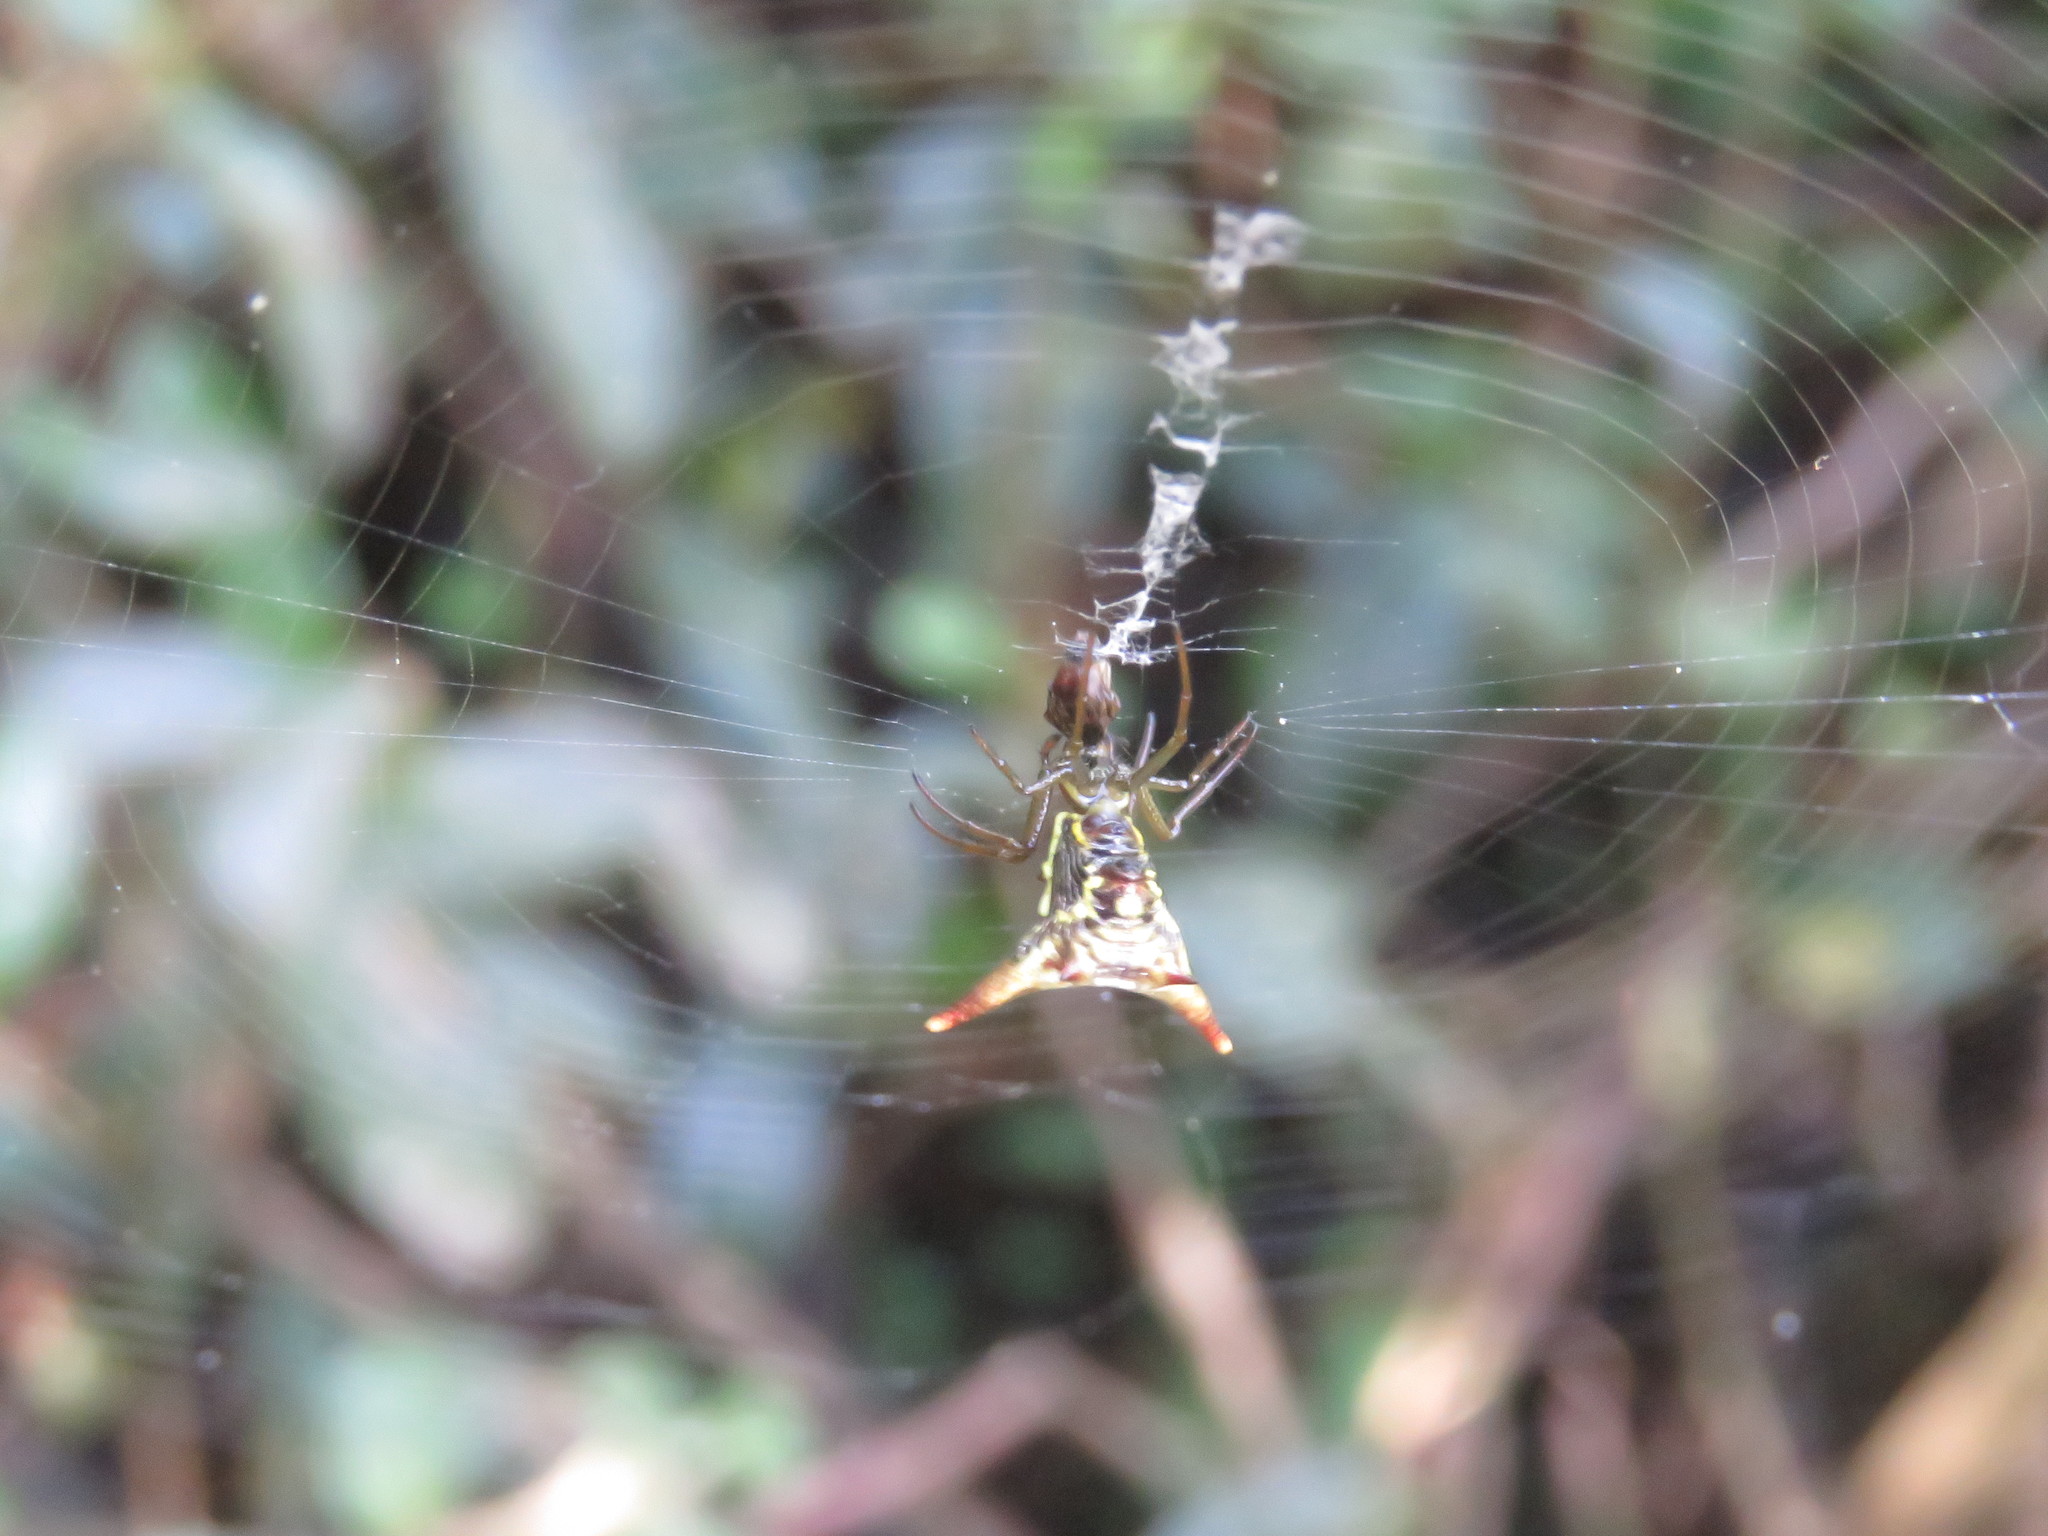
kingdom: Animalia
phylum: Arthropoda
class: Arachnida
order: Araneae
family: Araneidae
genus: Micrathena
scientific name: Micrathena guerini
